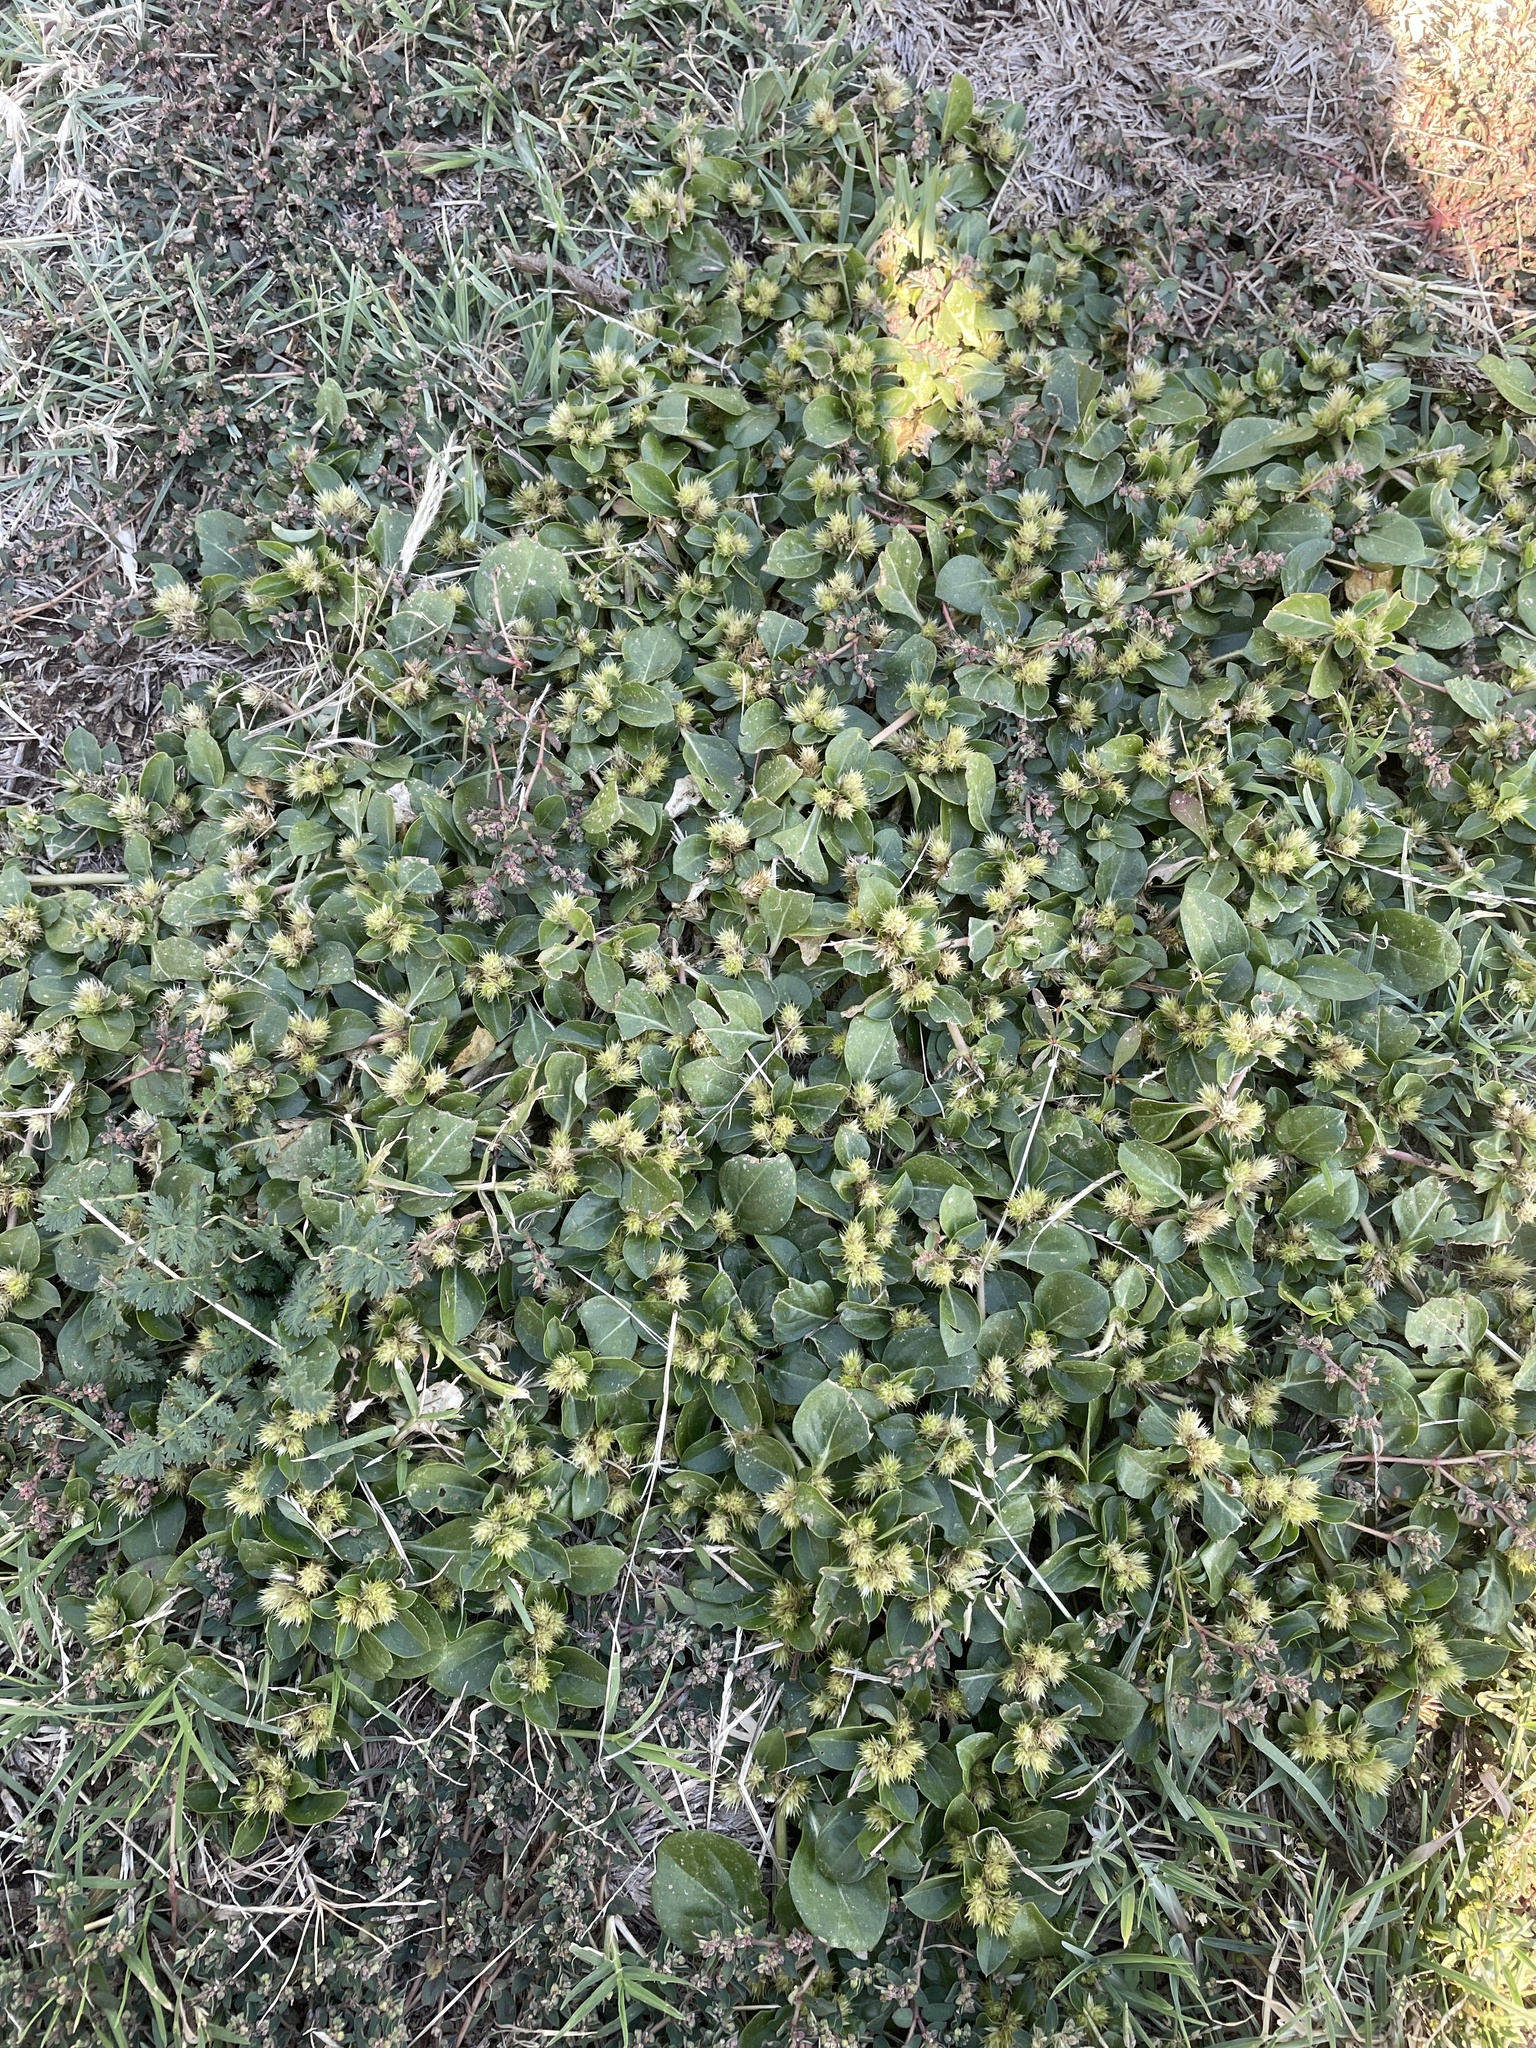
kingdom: Plantae
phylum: Tracheophyta
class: Magnoliopsida
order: Caryophyllales
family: Amaranthaceae
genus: Alternanthera
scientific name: Alternanthera pungens
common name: Khakiweed
